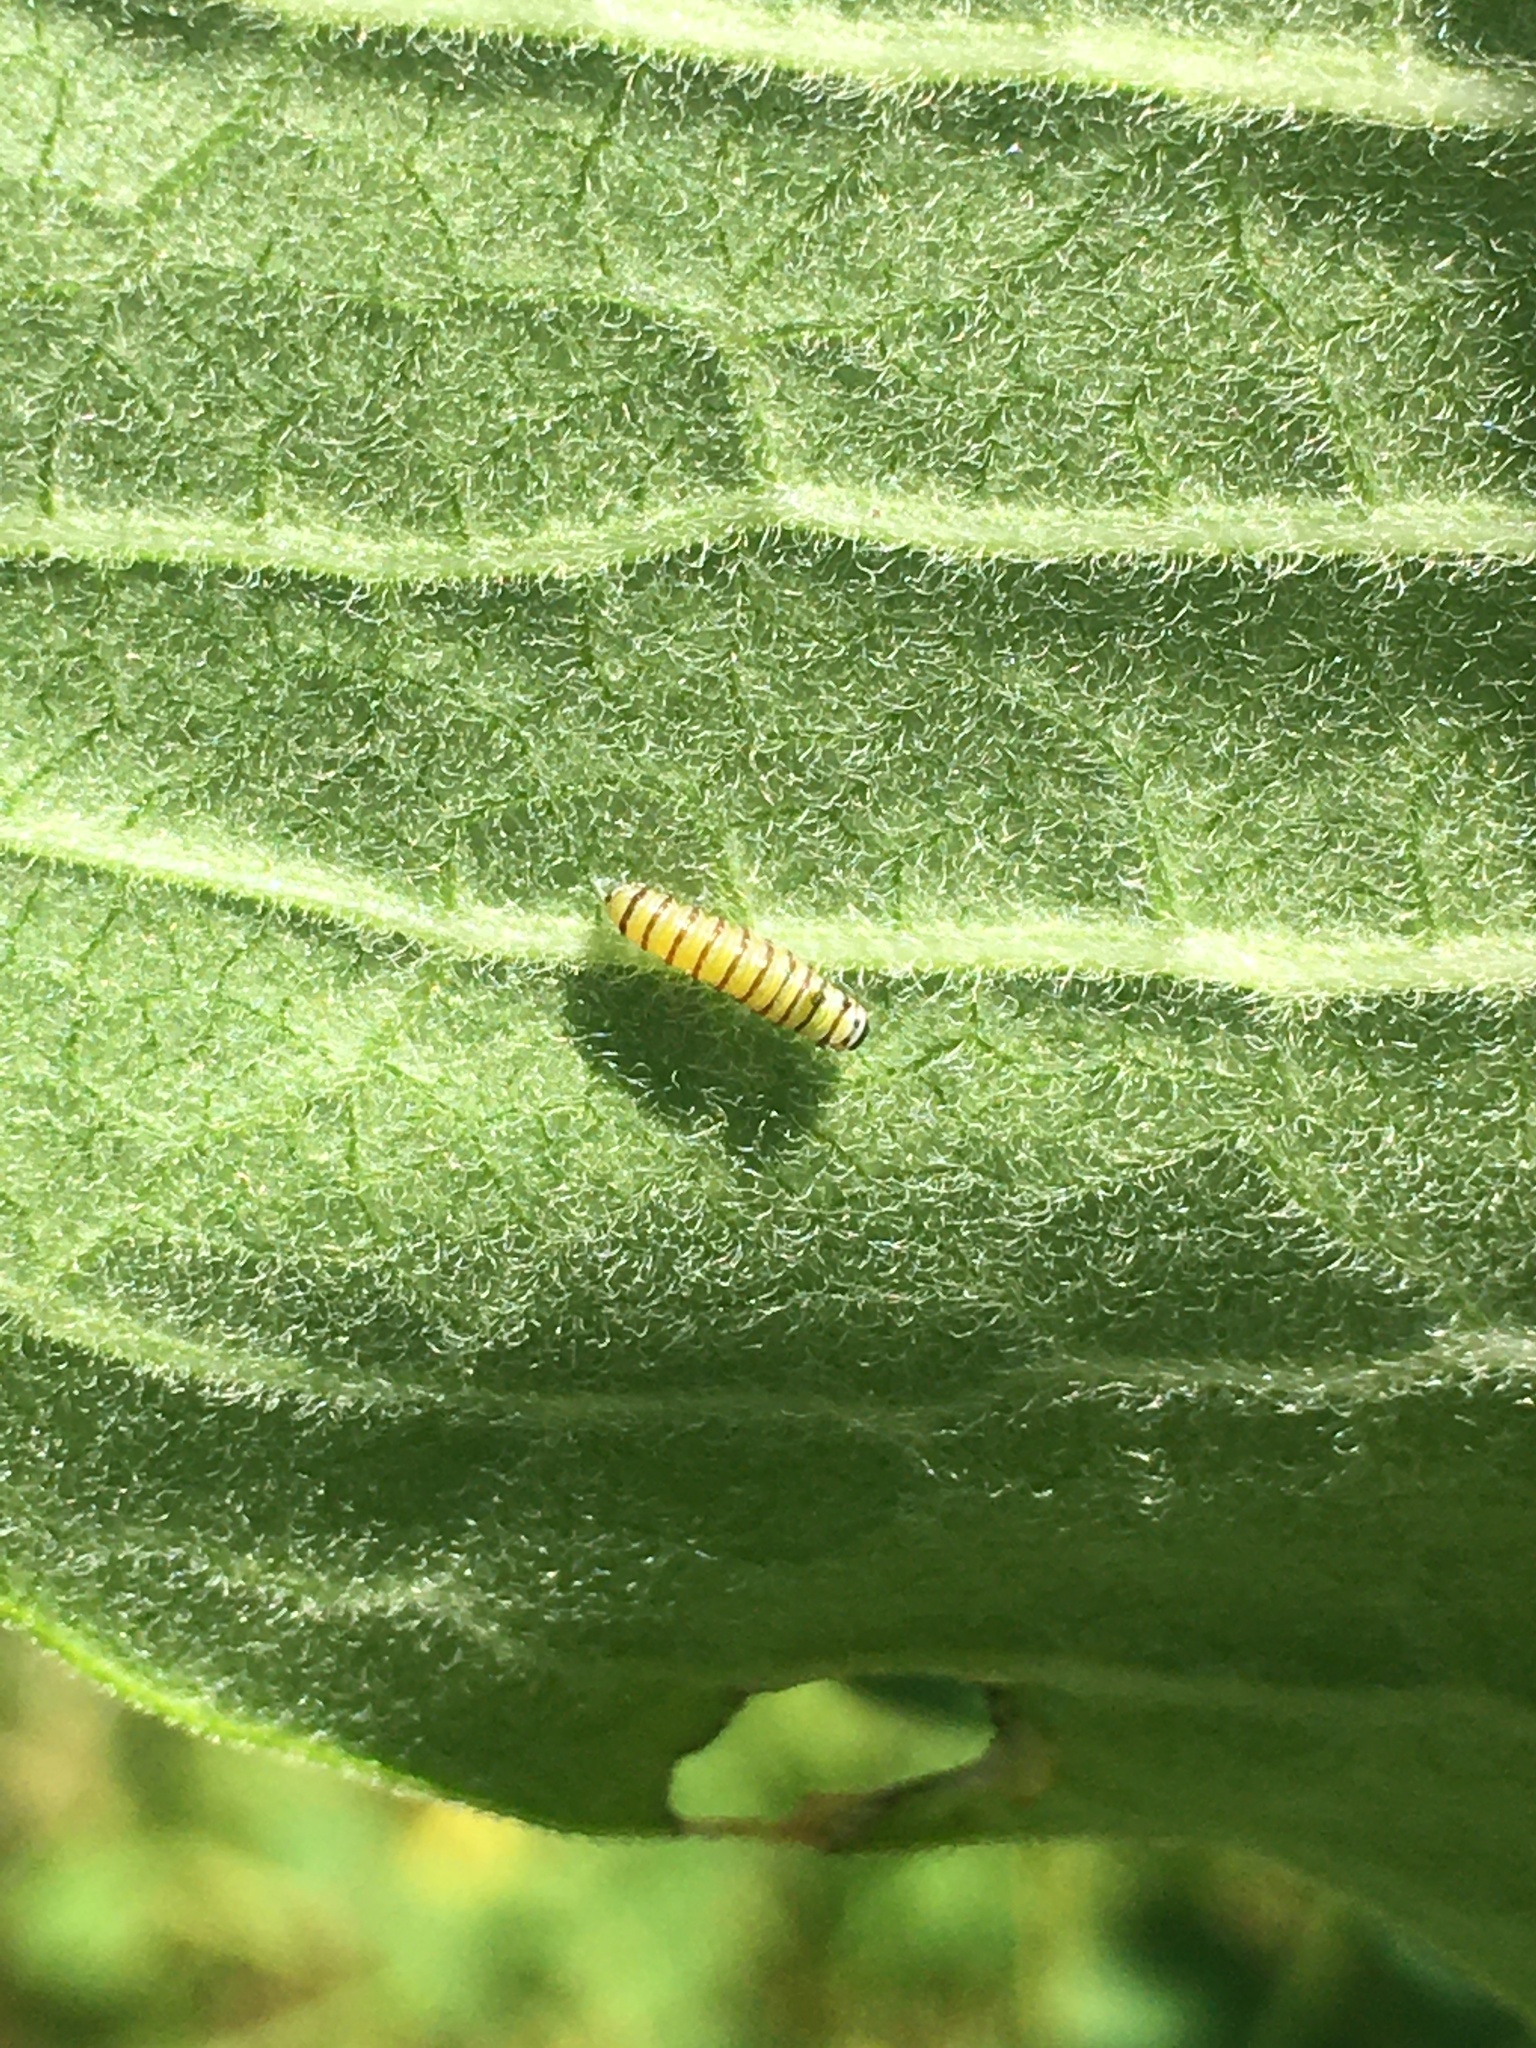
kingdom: Animalia
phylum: Arthropoda
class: Insecta
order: Lepidoptera
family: Nymphalidae
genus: Danaus
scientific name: Danaus plexippus
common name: Monarch
